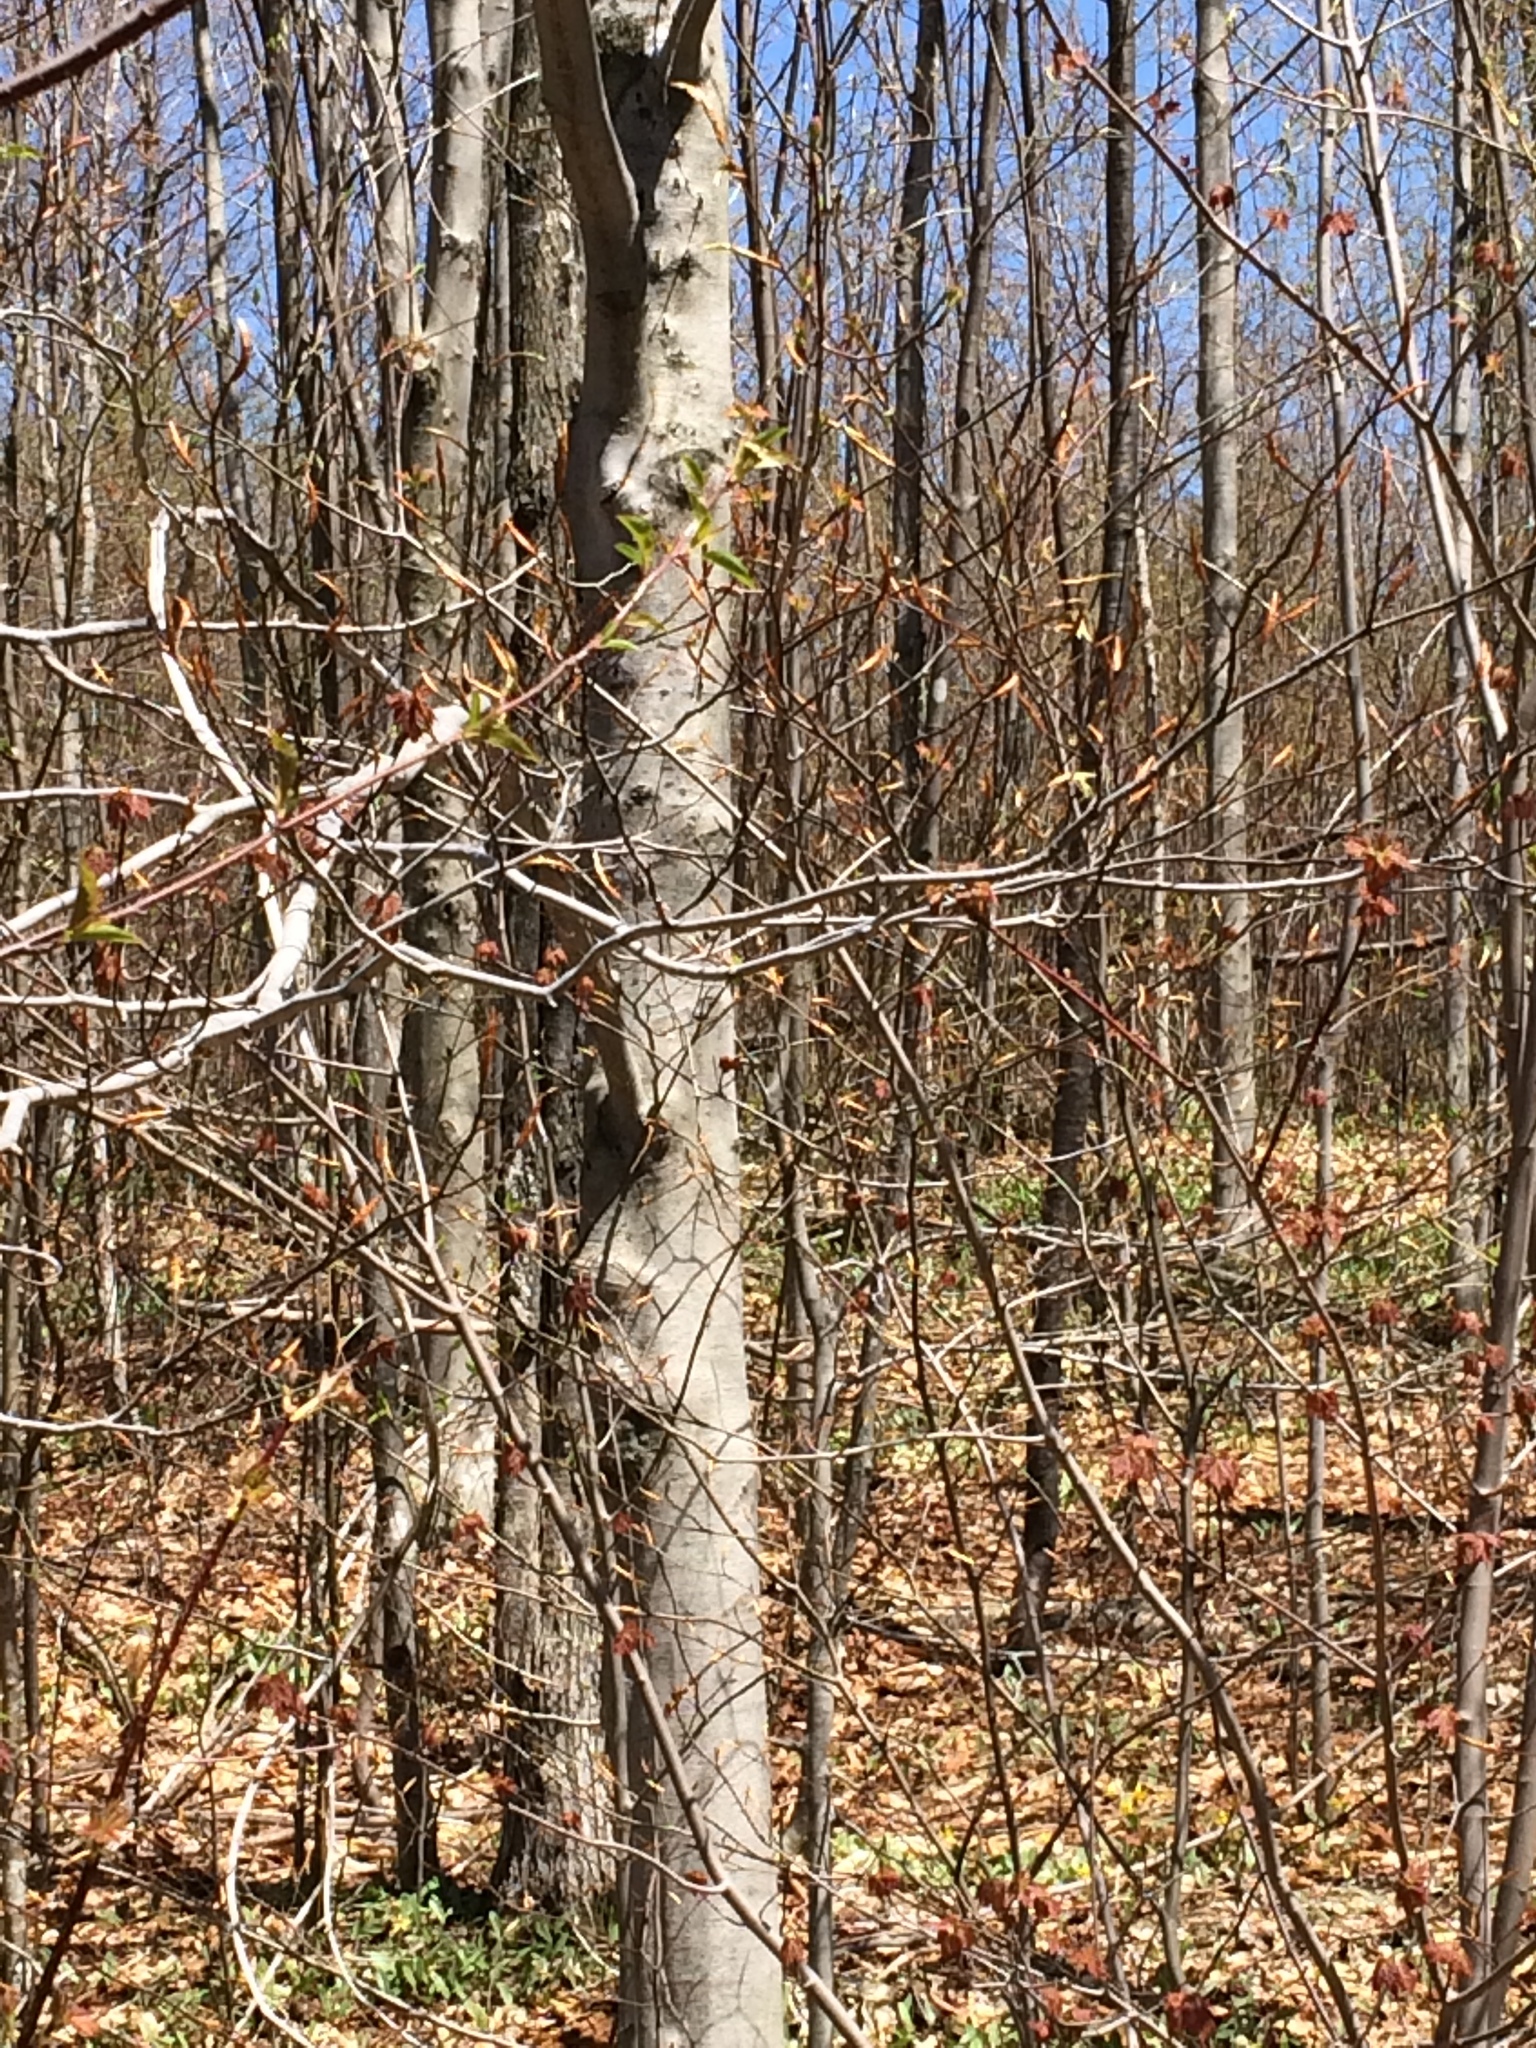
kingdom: Plantae
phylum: Tracheophyta
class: Magnoliopsida
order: Fagales
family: Fagaceae
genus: Fagus
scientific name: Fagus grandifolia
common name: American beech
